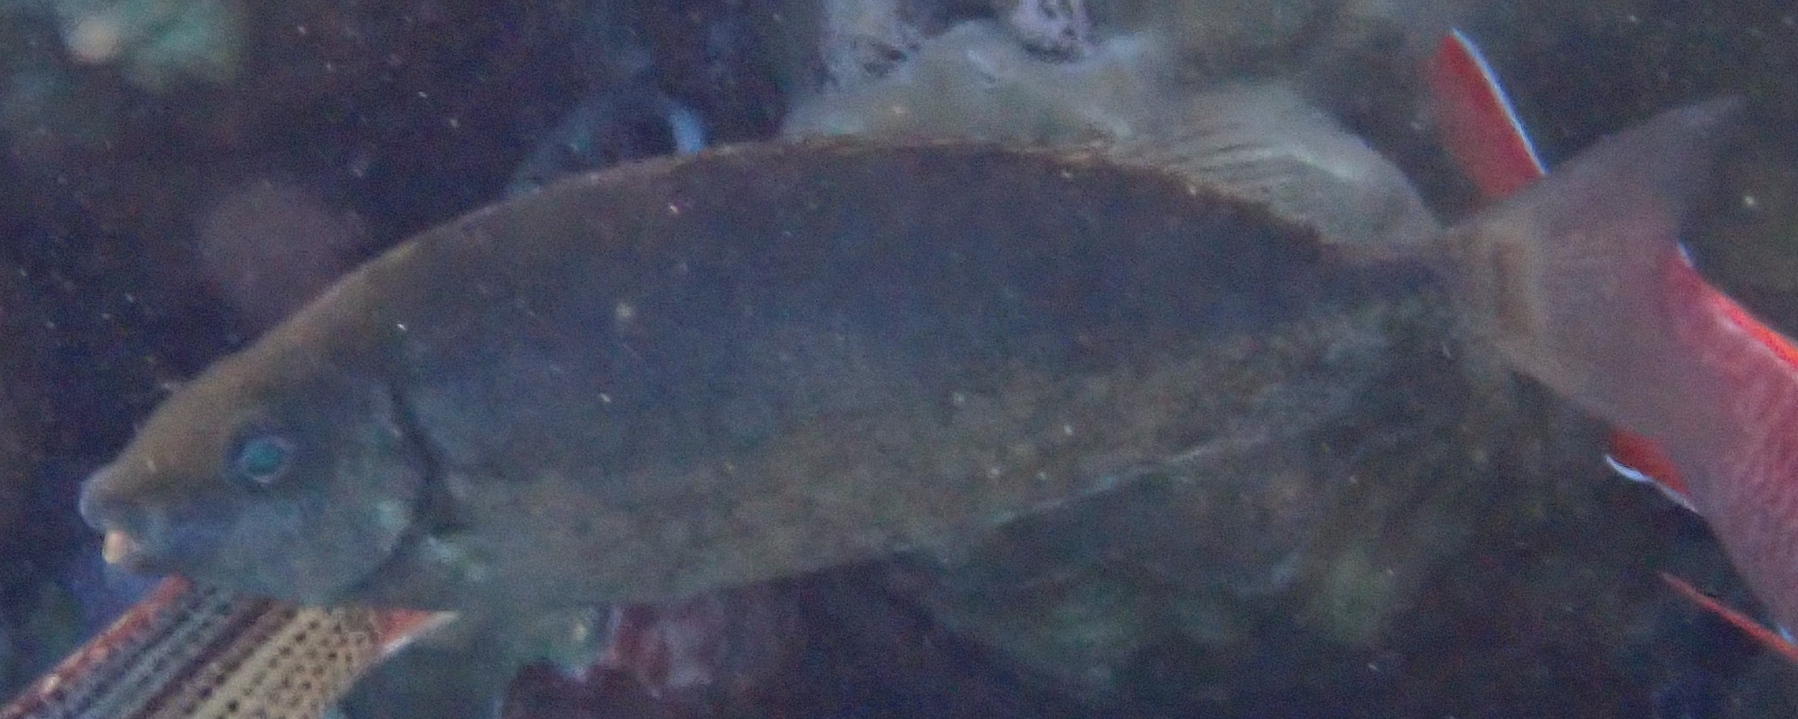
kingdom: Animalia
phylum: Chordata
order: Perciformes
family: Siganidae
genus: Siganus
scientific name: Siganus rivulatus
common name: Marbled spinefoot
